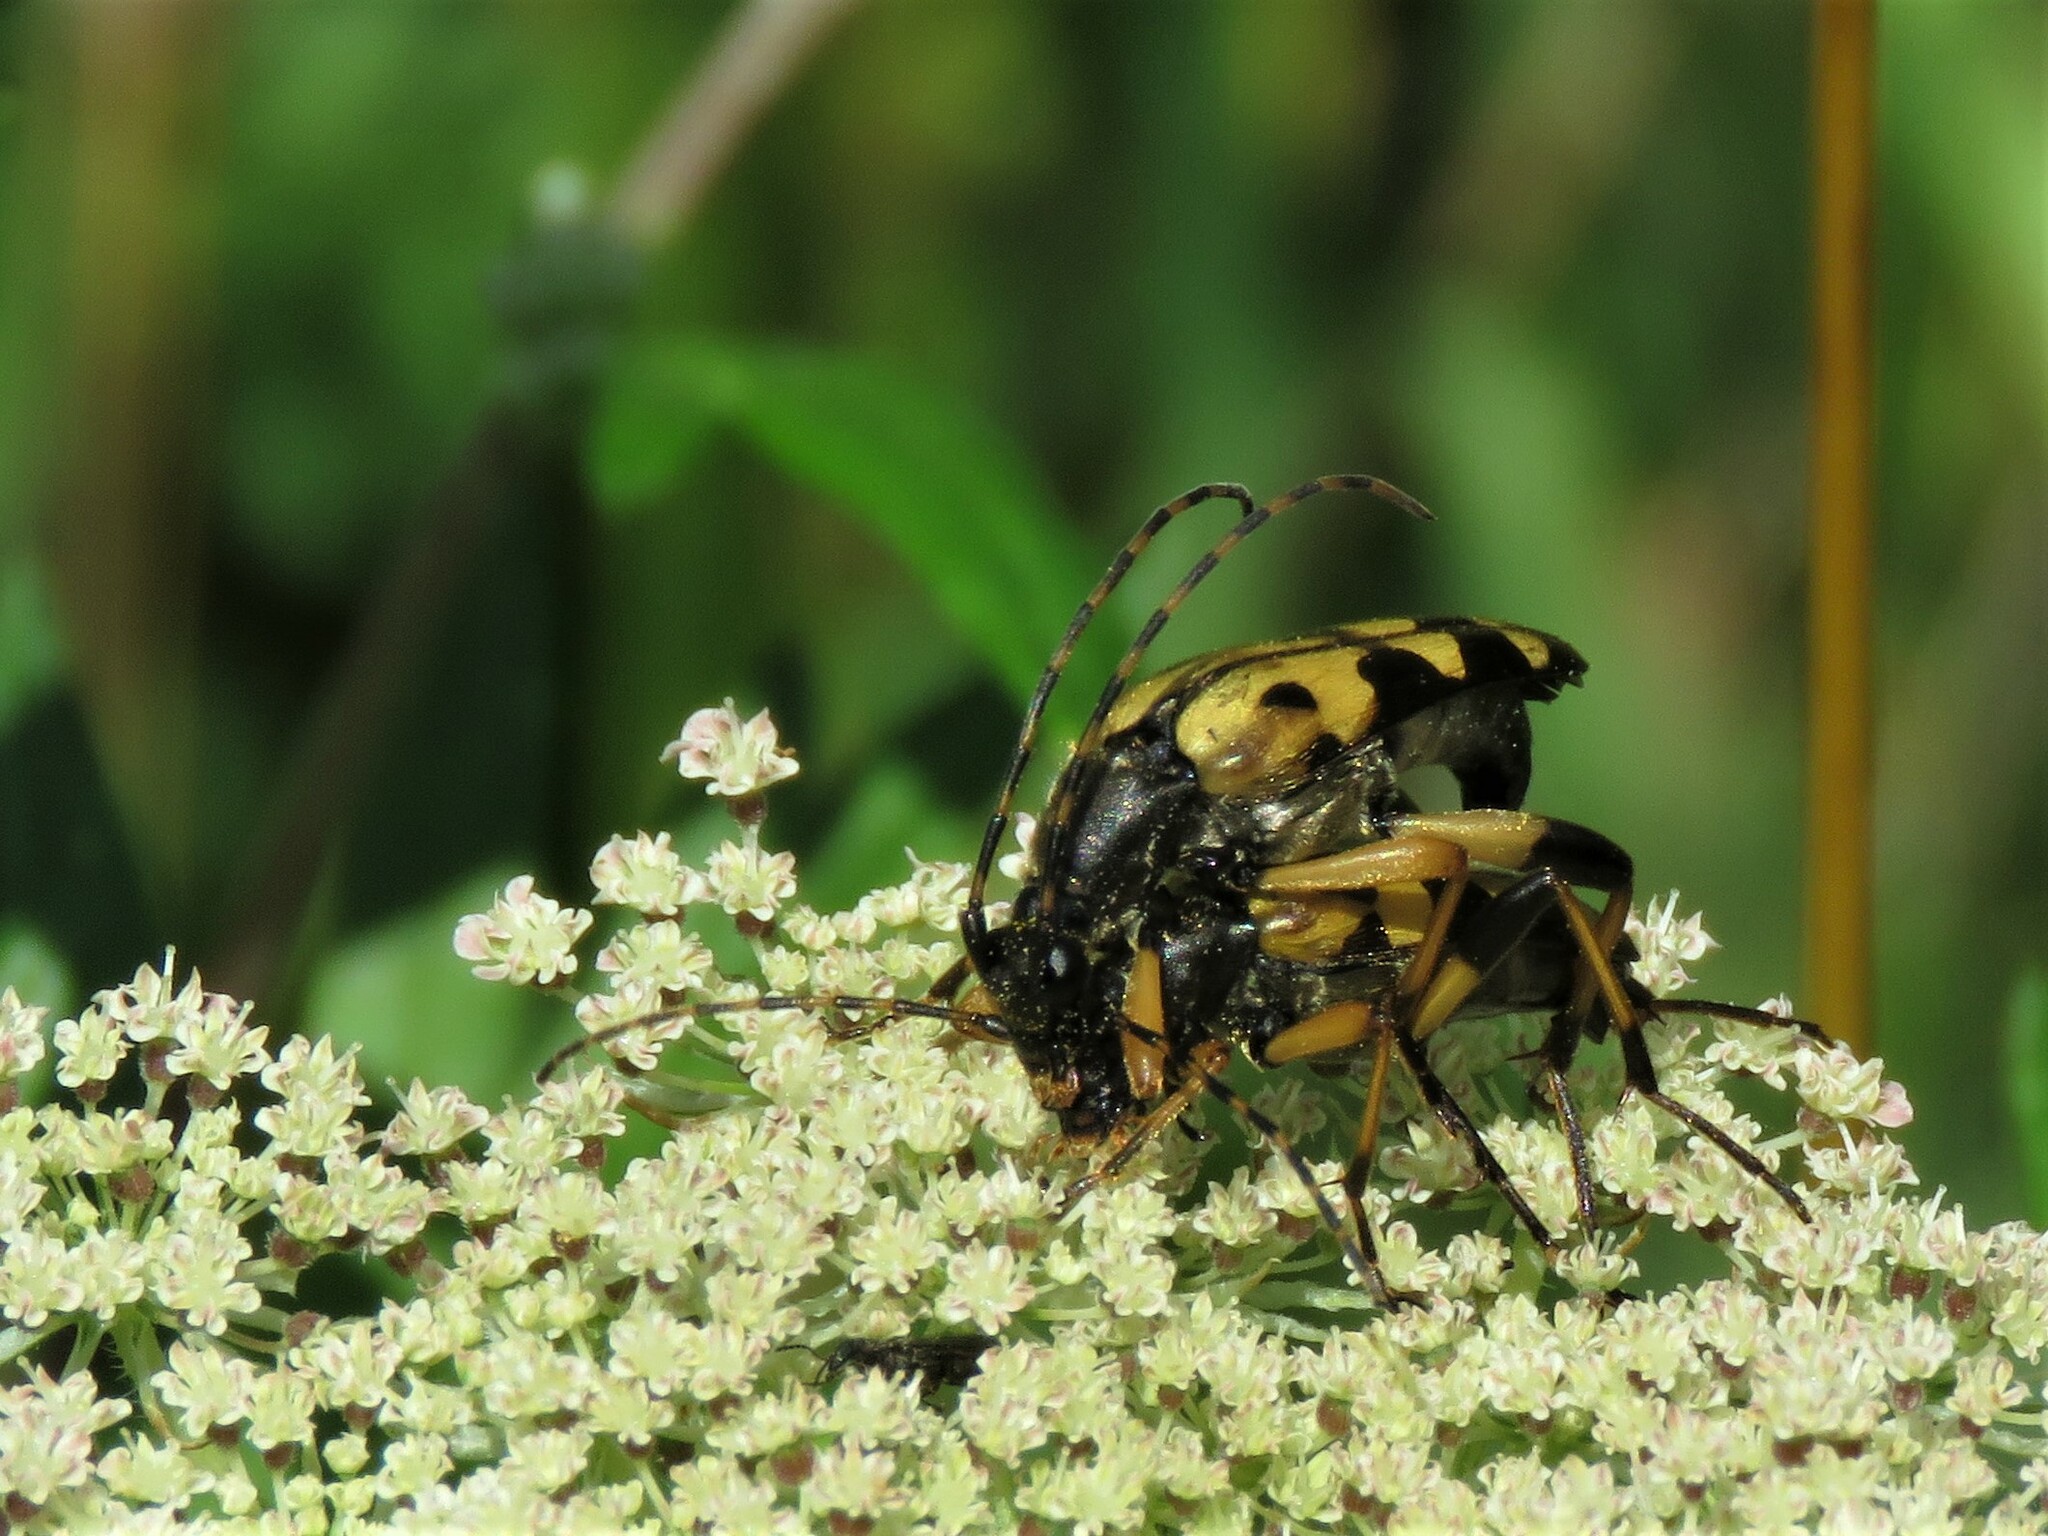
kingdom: Animalia
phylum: Arthropoda
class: Insecta
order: Coleoptera
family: Cerambycidae
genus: Rutpela
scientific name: Rutpela maculata
